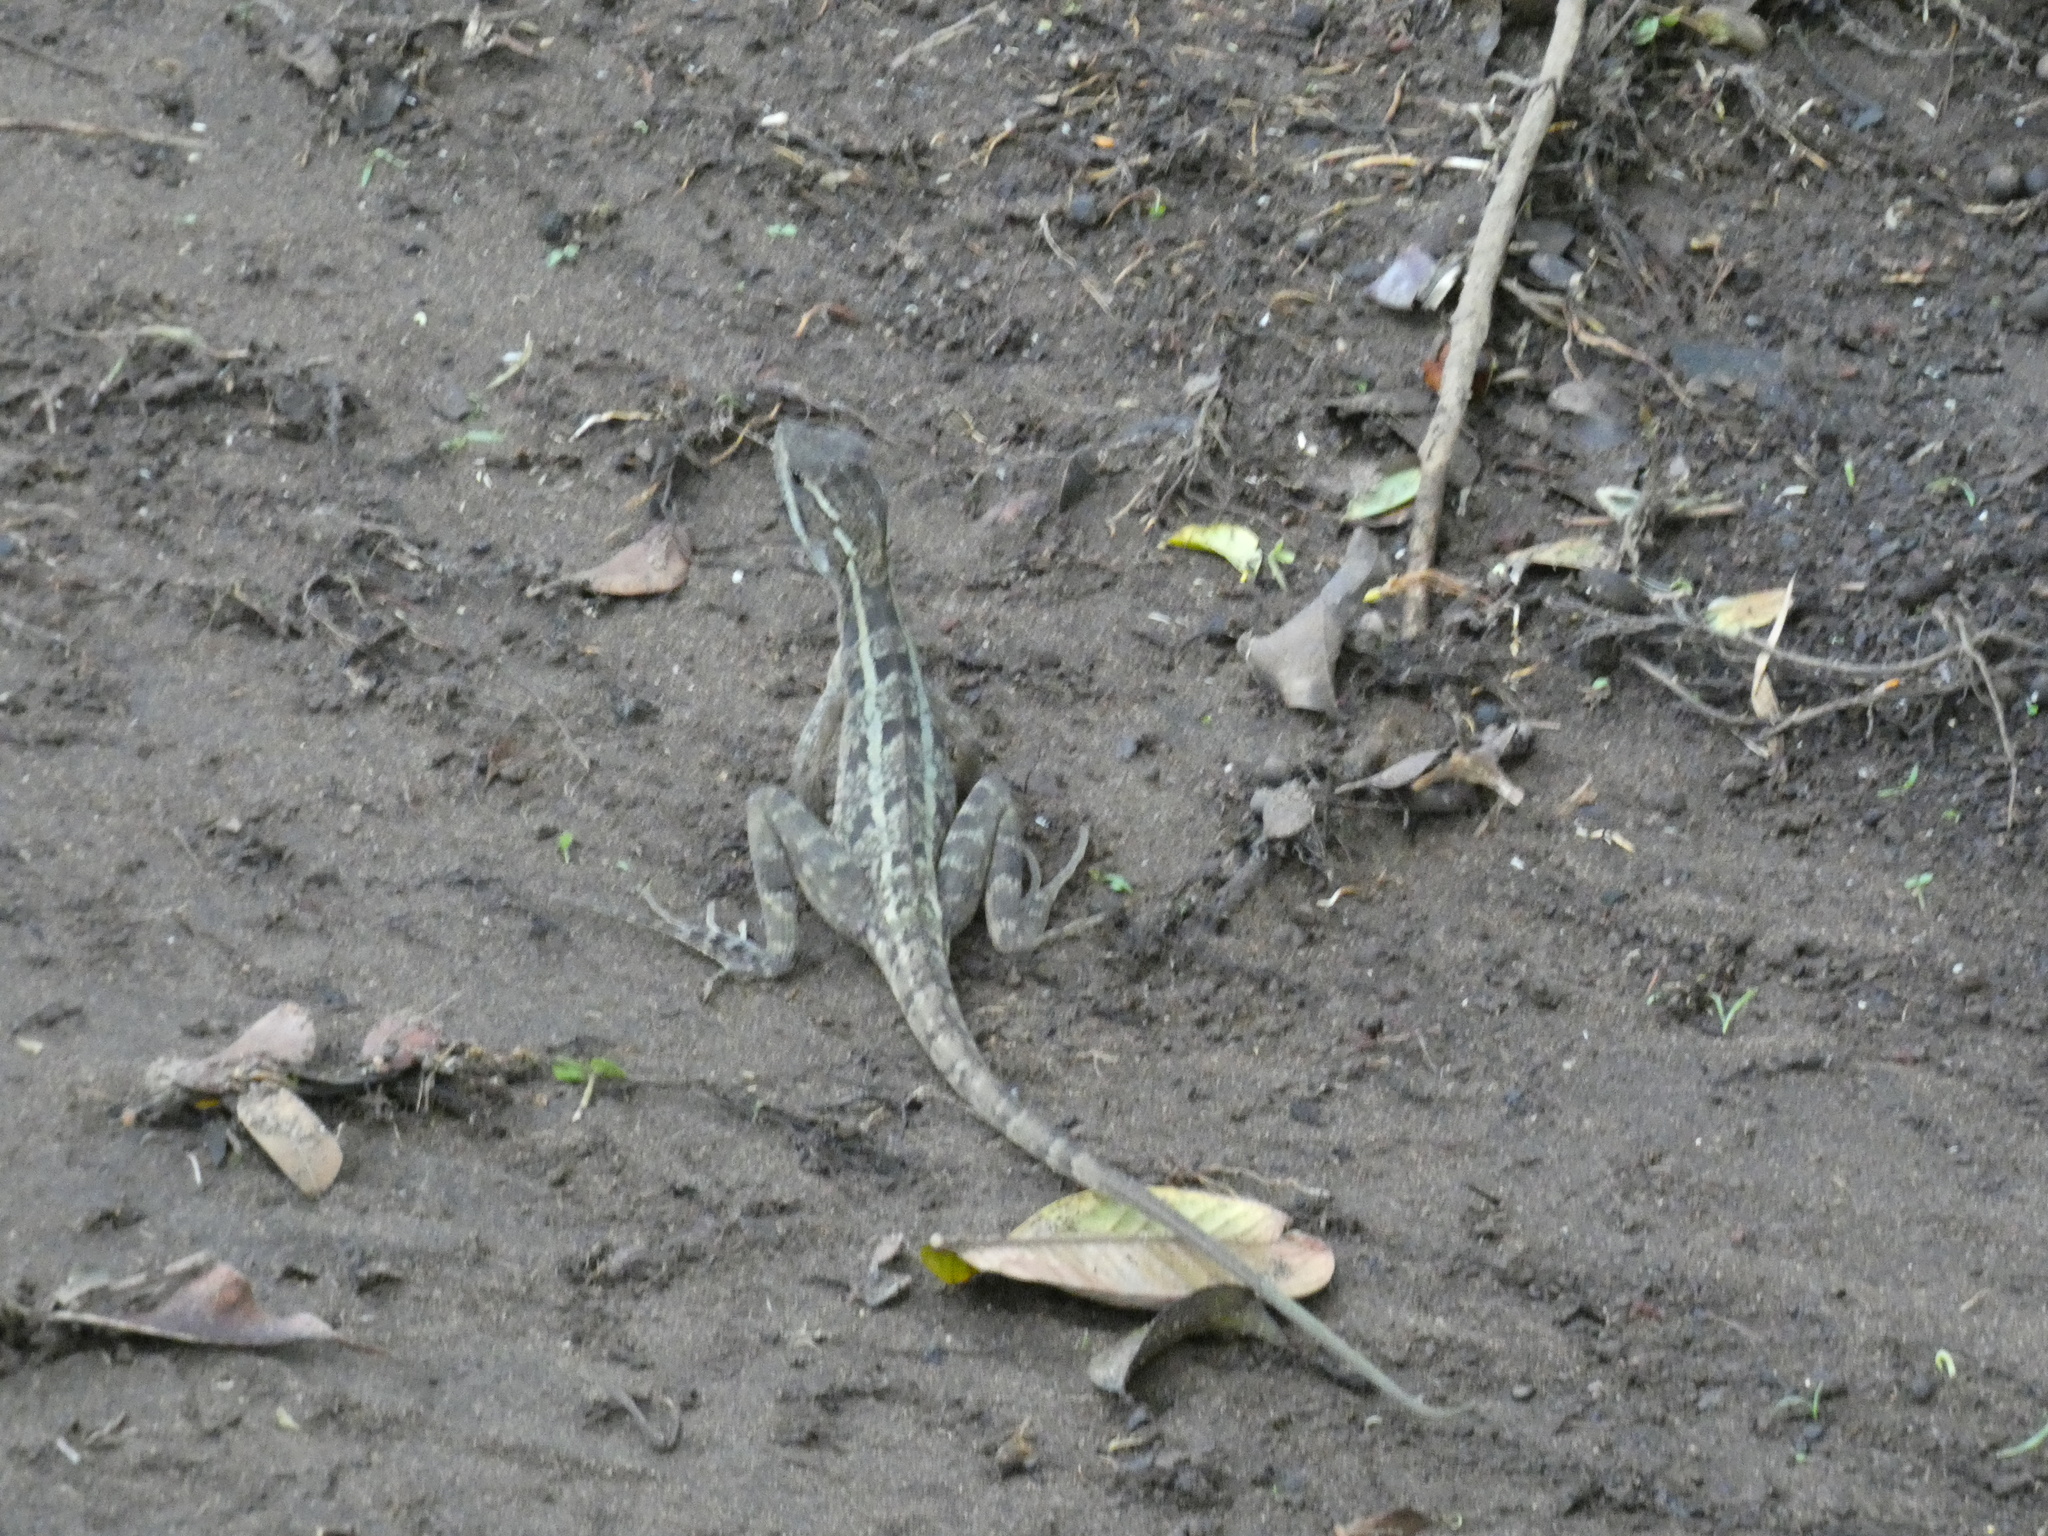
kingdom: Animalia
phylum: Chordata
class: Squamata
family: Corytophanidae
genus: Basiliscus
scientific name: Basiliscus vittatus
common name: Brown basilisk
